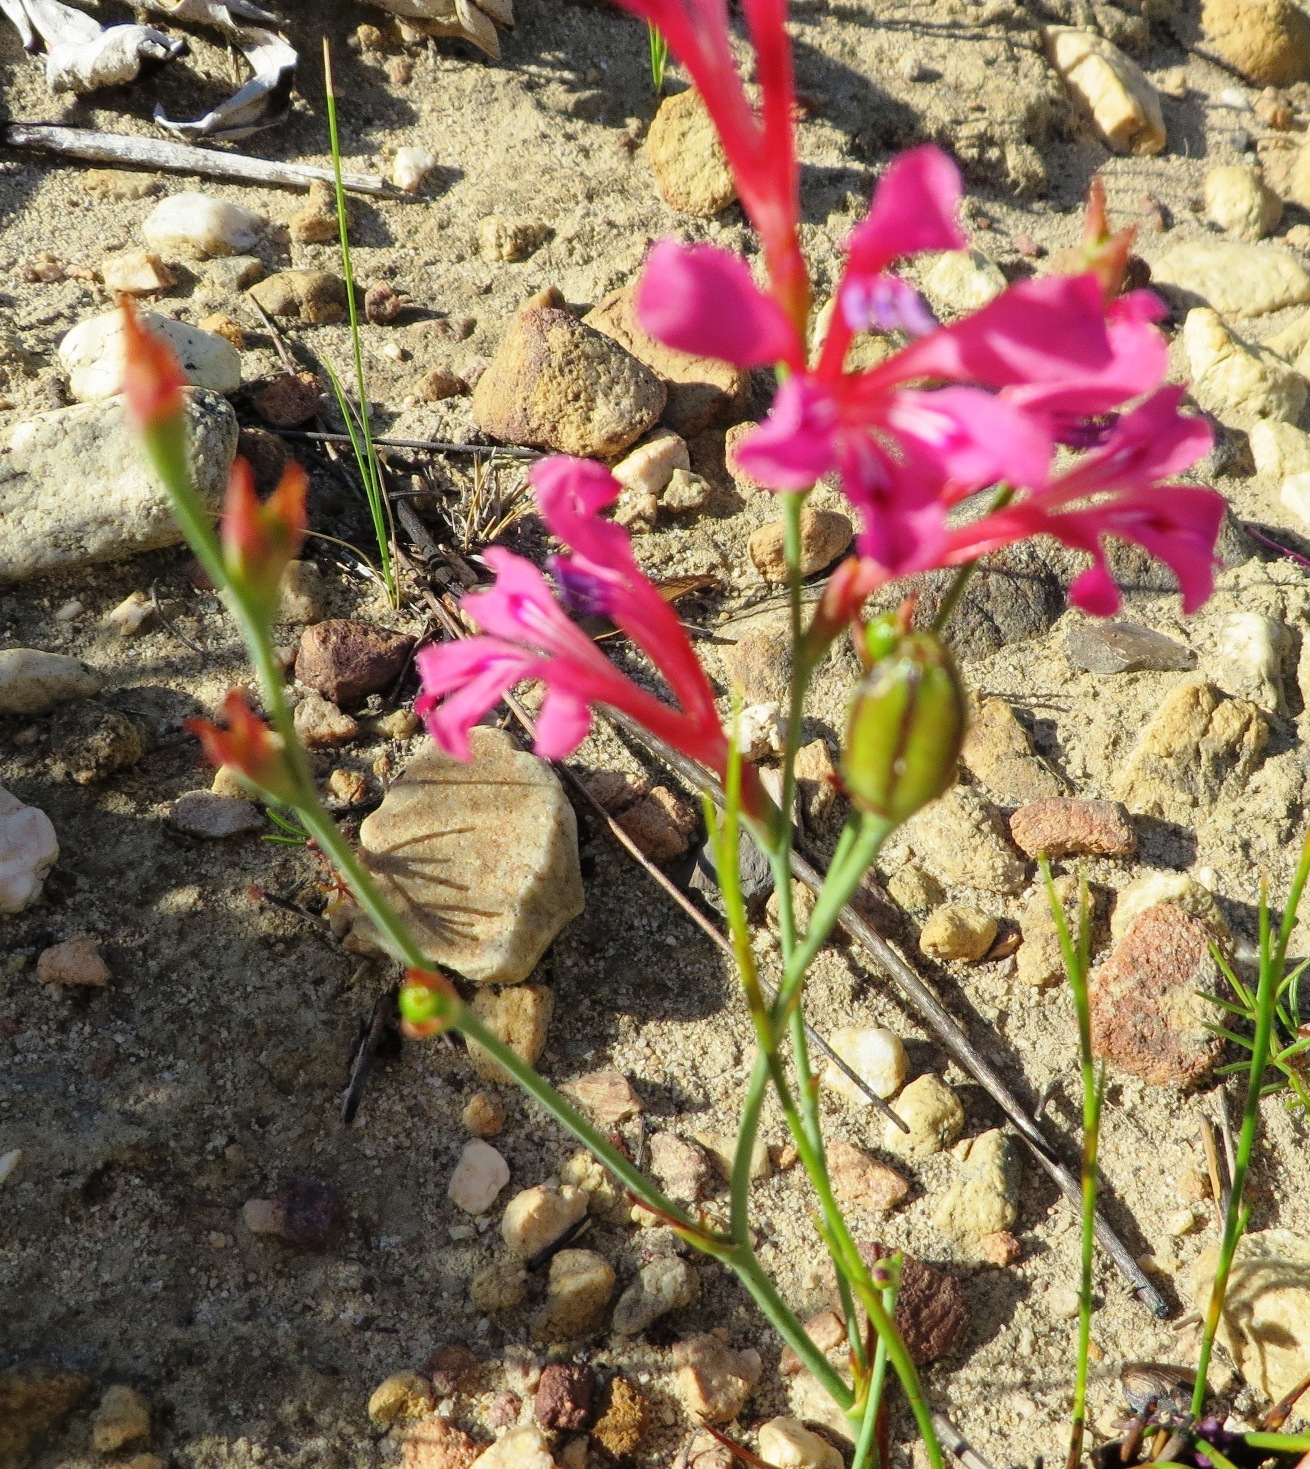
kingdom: Plantae
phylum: Tracheophyta
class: Liliopsida
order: Asparagales
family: Iridaceae
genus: Tritoniopsis
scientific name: Tritoniopsis ramosa
